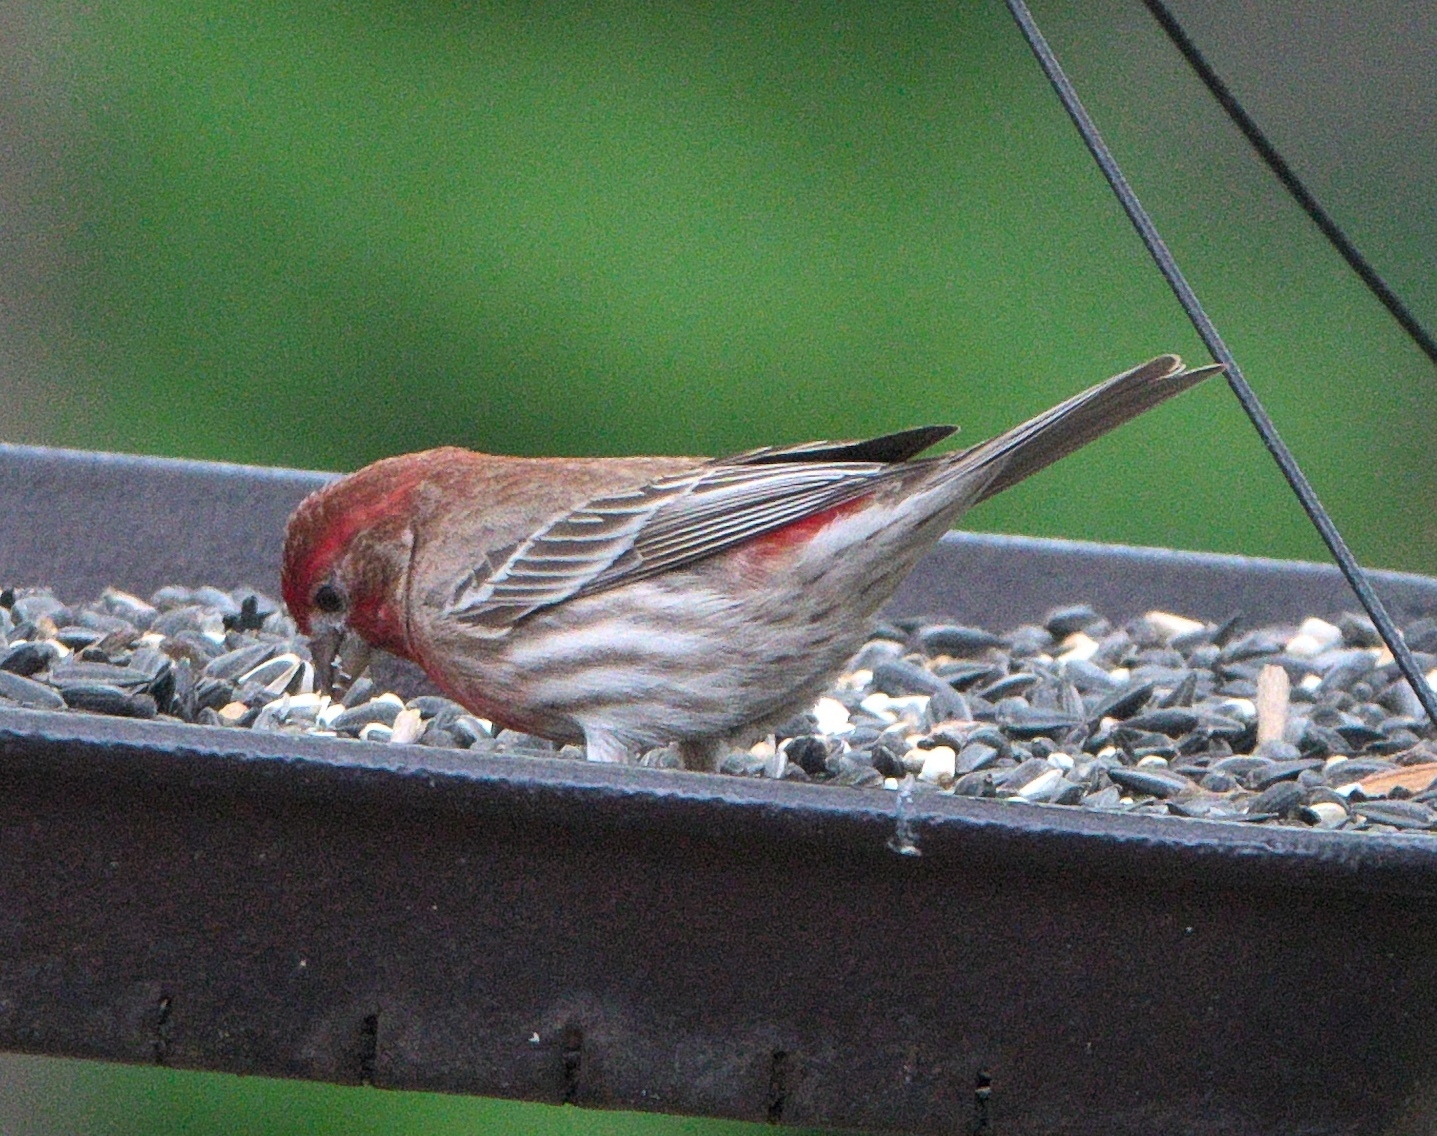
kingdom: Animalia
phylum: Chordata
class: Aves
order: Passeriformes
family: Fringillidae
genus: Haemorhous
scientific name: Haemorhous mexicanus
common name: House finch
